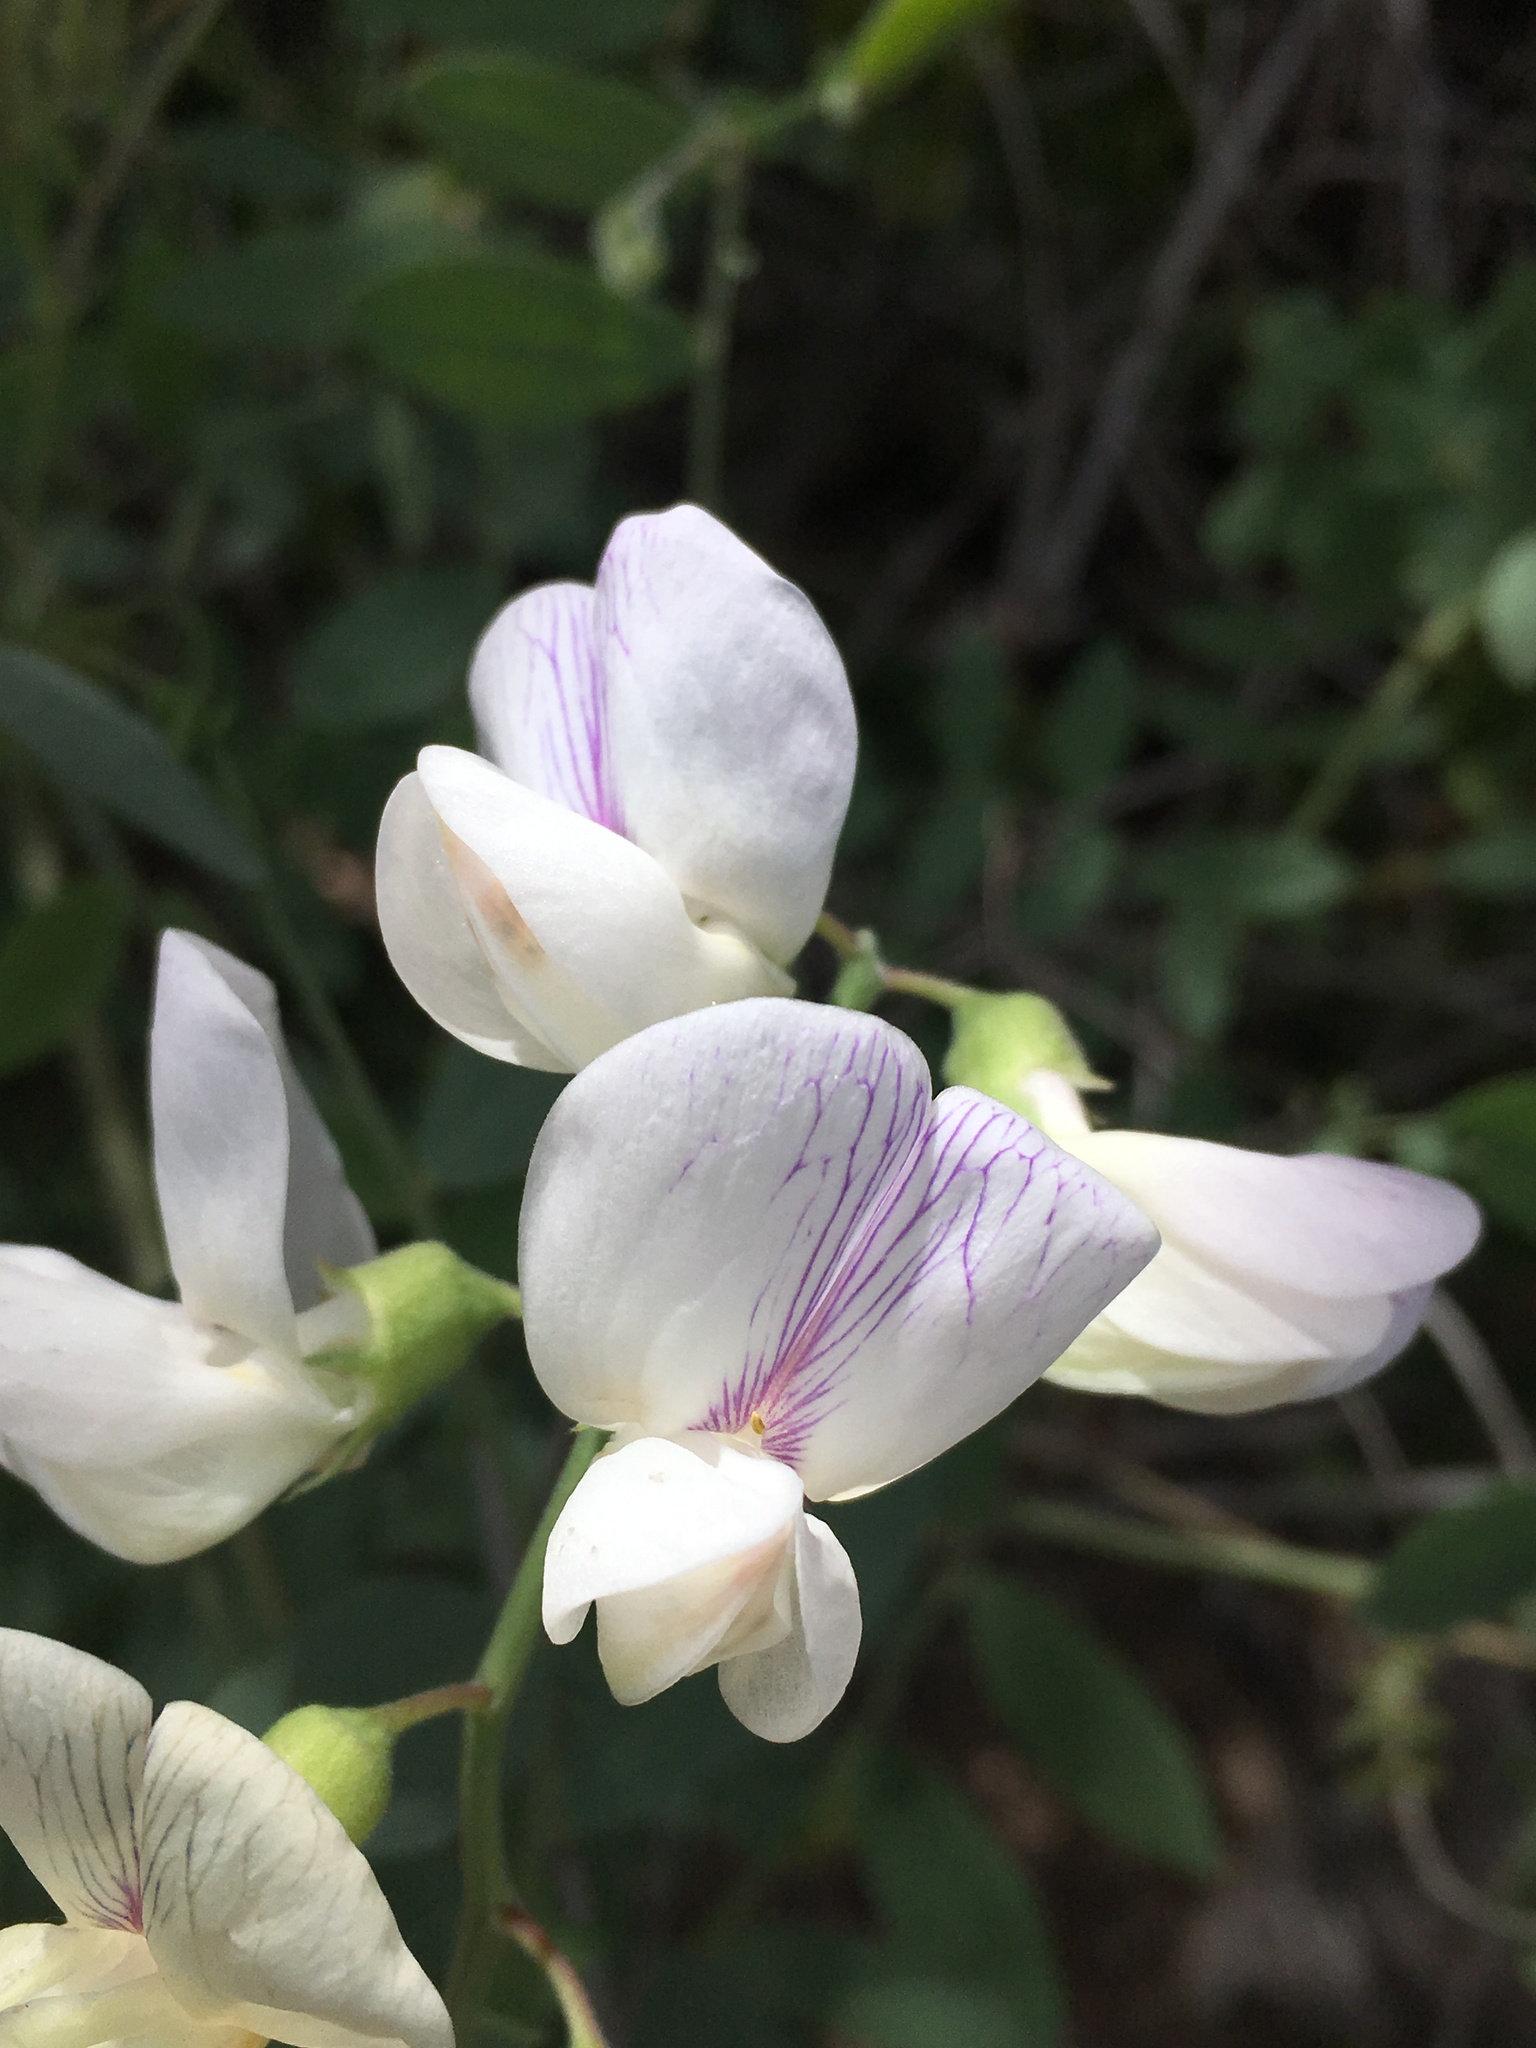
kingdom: Plantae
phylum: Tracheophyta
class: Magnoliopsida
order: Fabales
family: Fabaceae
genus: Lathyrus
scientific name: Lathyrus vestitus
